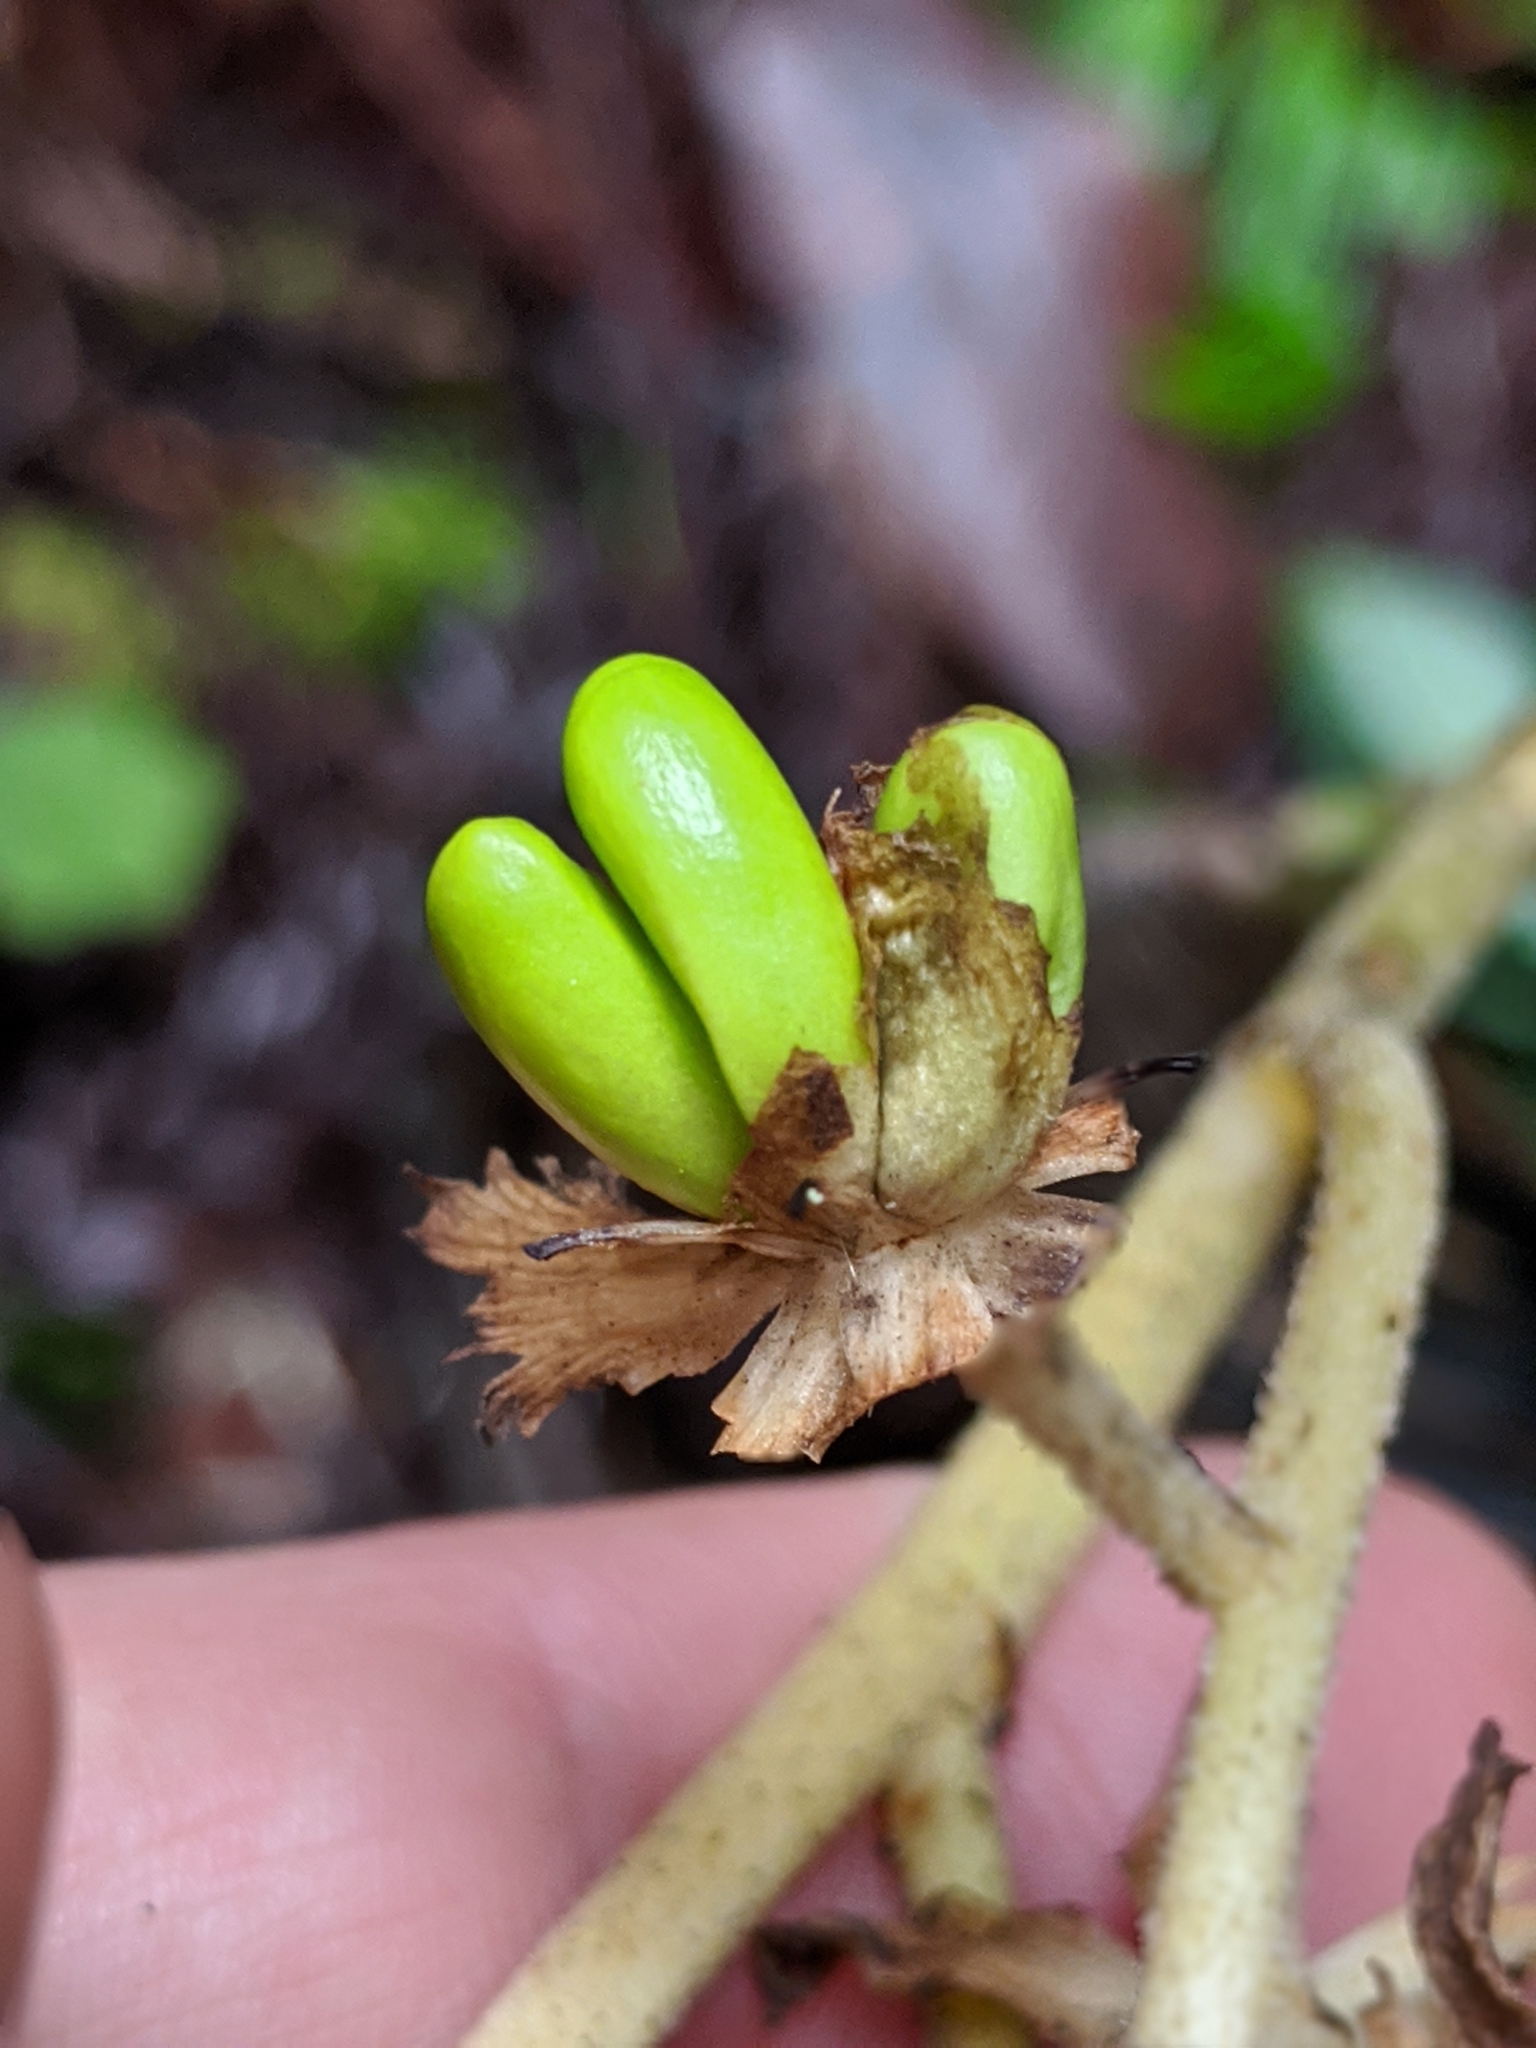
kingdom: Plantae
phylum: Tracheophyta
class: Liliopsida
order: Liliales
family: Melanthiaceae
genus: Veratrum
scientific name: Veratrum fimbriatum
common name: Fringe false hellobore
